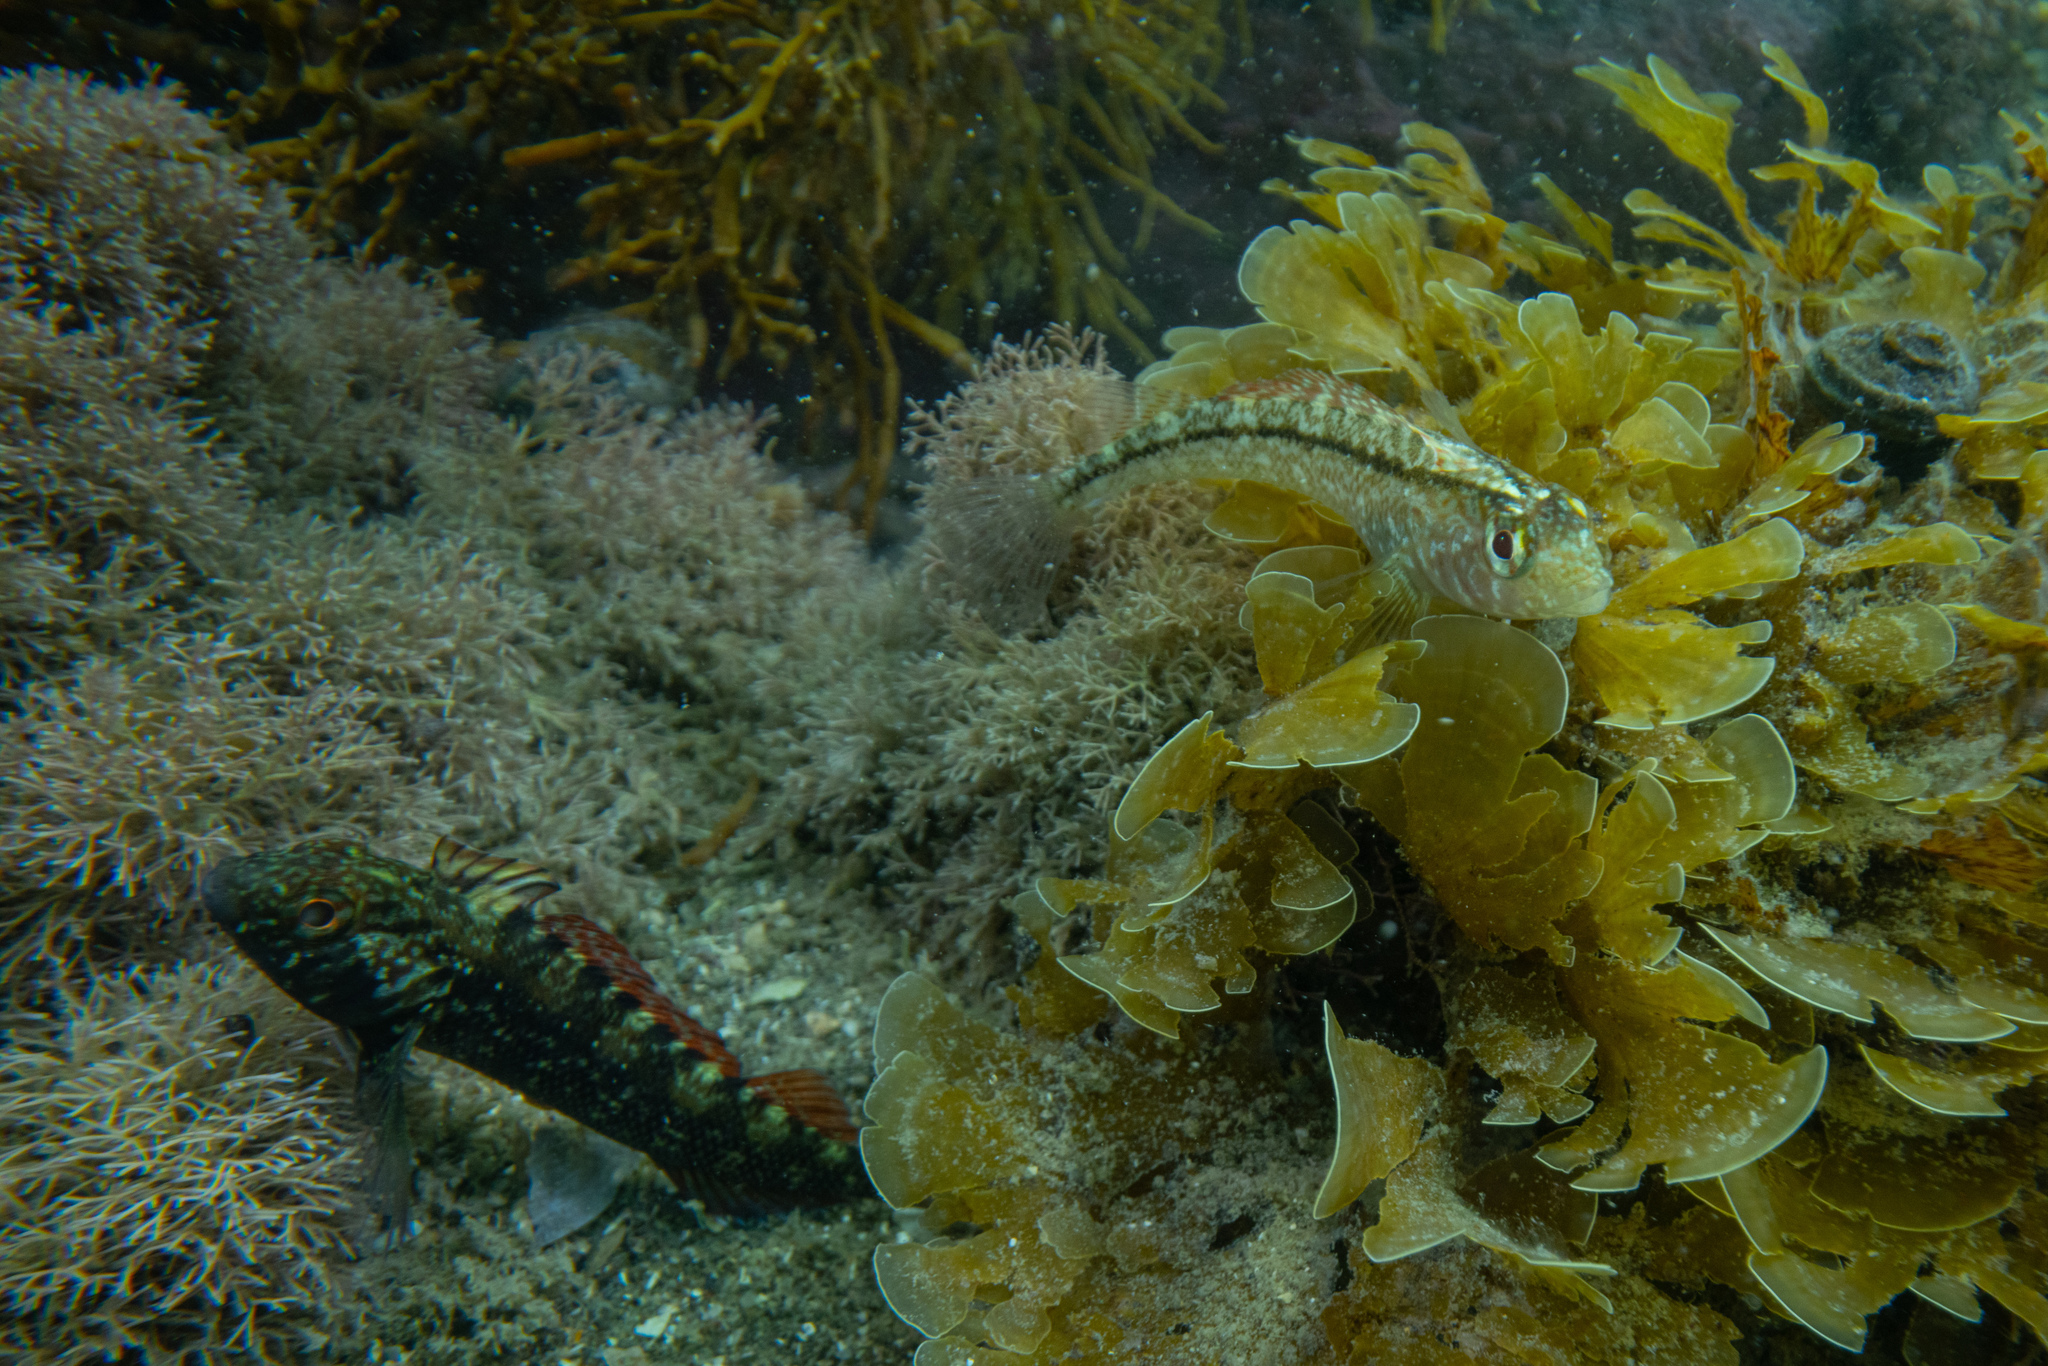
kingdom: Animalia
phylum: Chordata
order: Perciformes
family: Tripterygiidae
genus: Forsterygion
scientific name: Forsterygion lapillum
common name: Common triplefin
